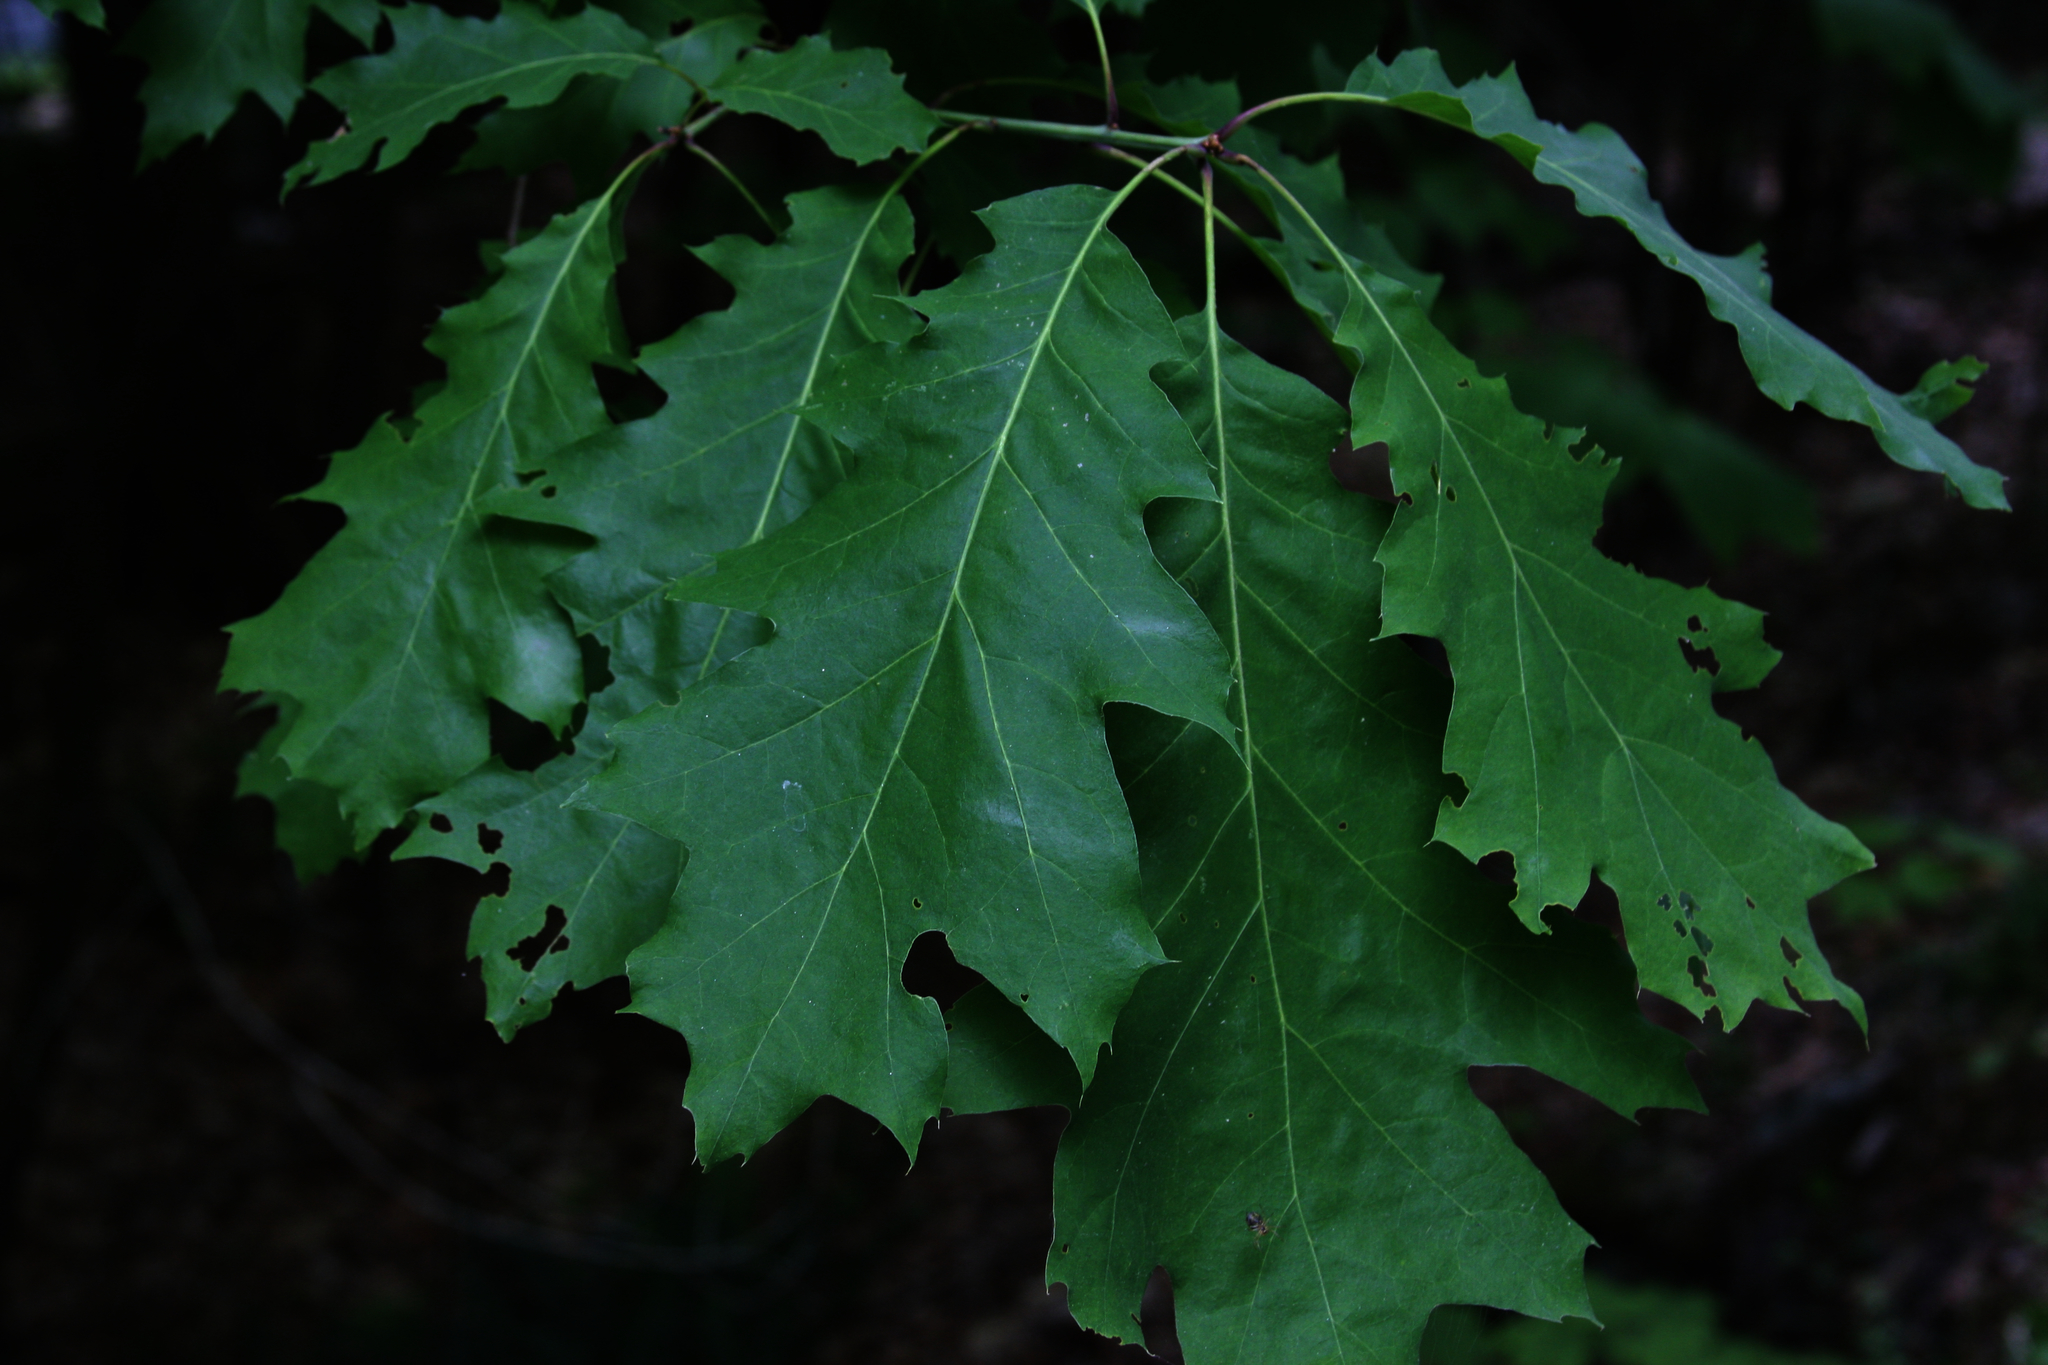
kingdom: Plantae
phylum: Tracheophyta
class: Magnoliopsida
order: Fagales
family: Fagaceae
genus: Quercus
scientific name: Quercus rubra
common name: Red oak
